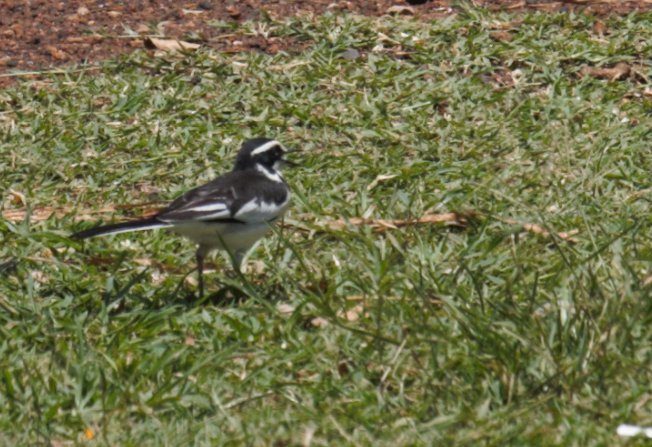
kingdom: Animalia
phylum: Chordata
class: Aves
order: Passeriformes
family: Motacillidae
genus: Motacilla
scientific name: Motacilla aguimp
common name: African pied wagtail
